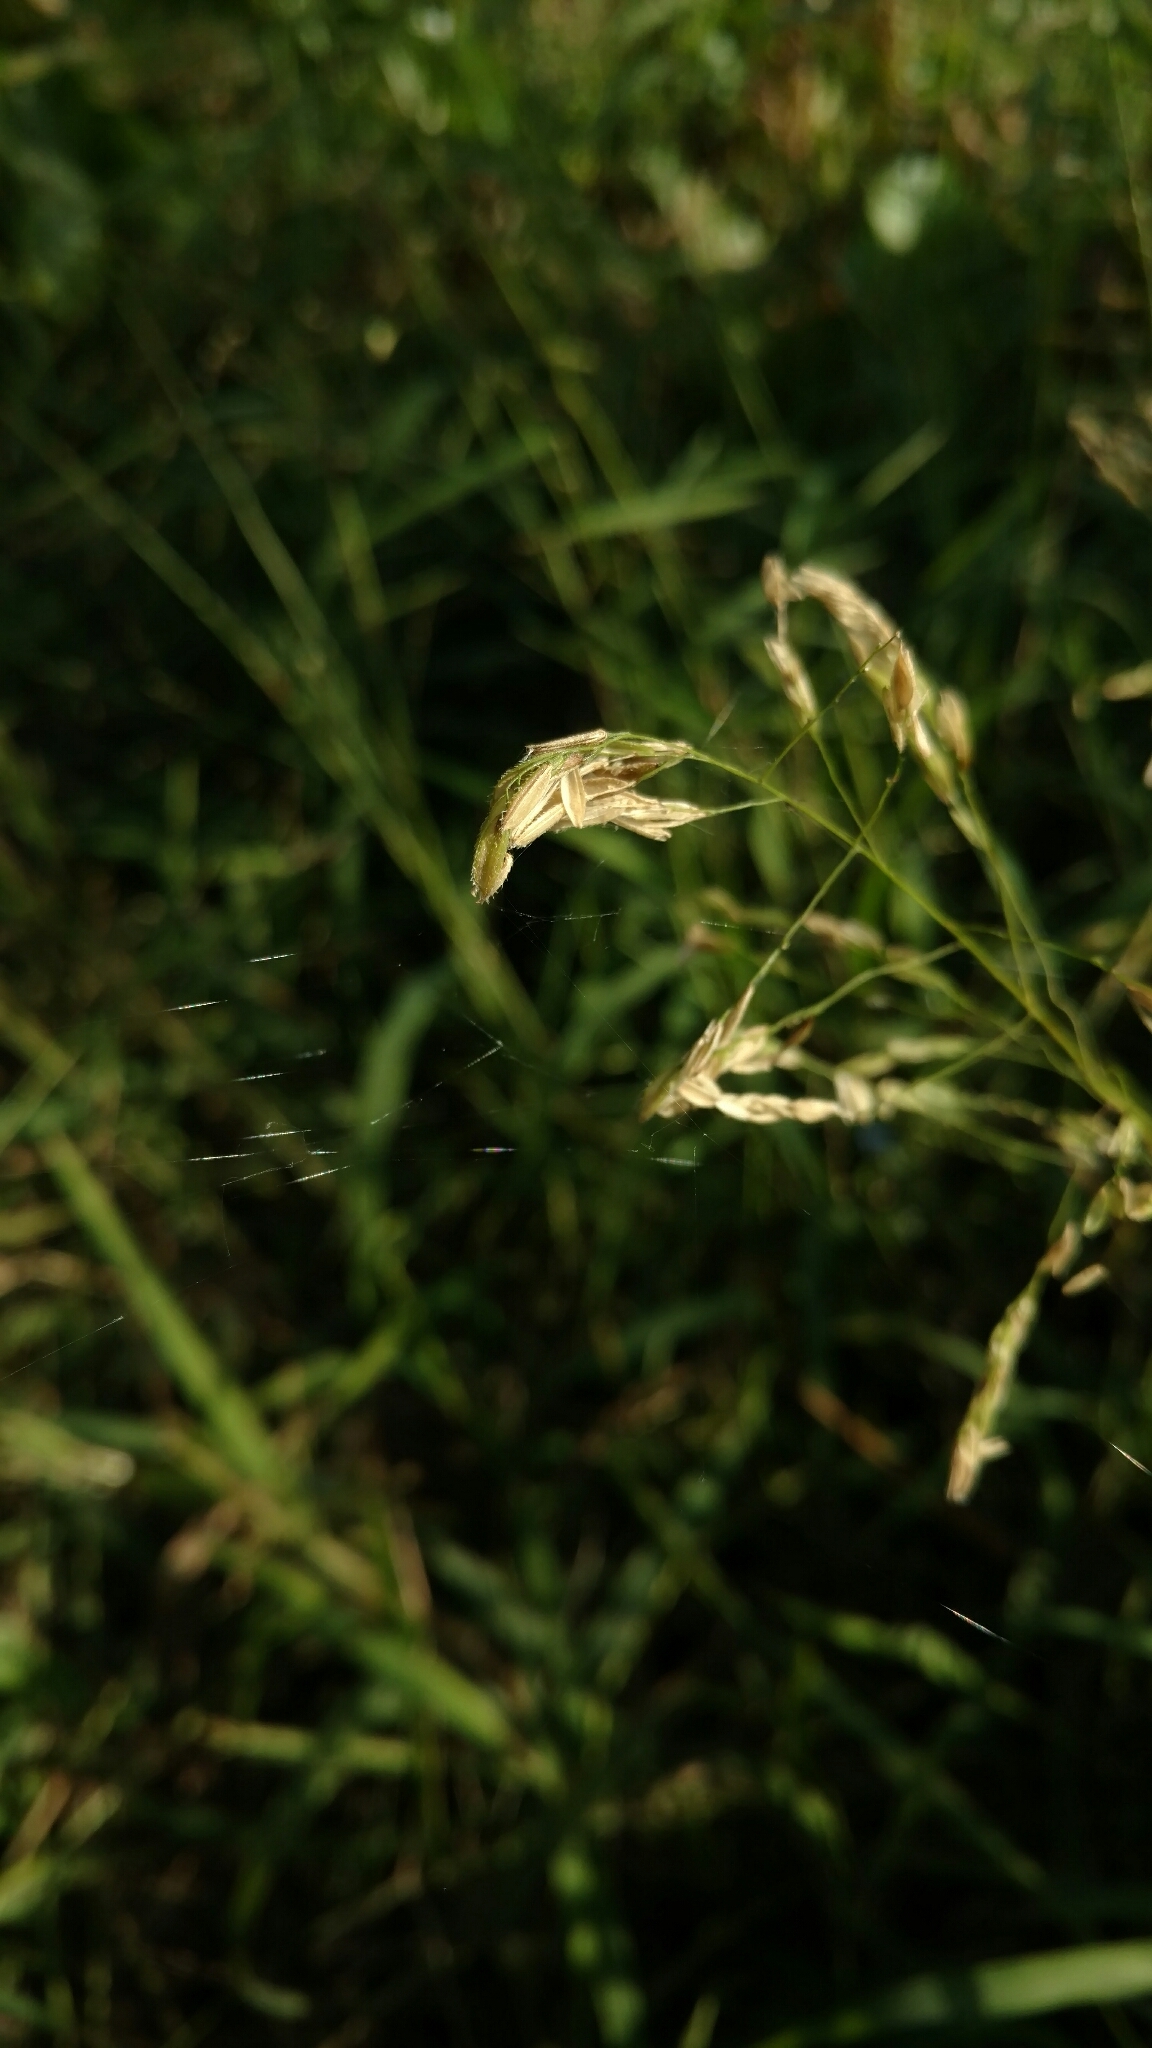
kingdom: Plantae
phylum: Tracheophyta
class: Liliopsida
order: Poales
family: Poaceae
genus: Leersia
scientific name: Leersia oryzoides
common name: Cut-grass
